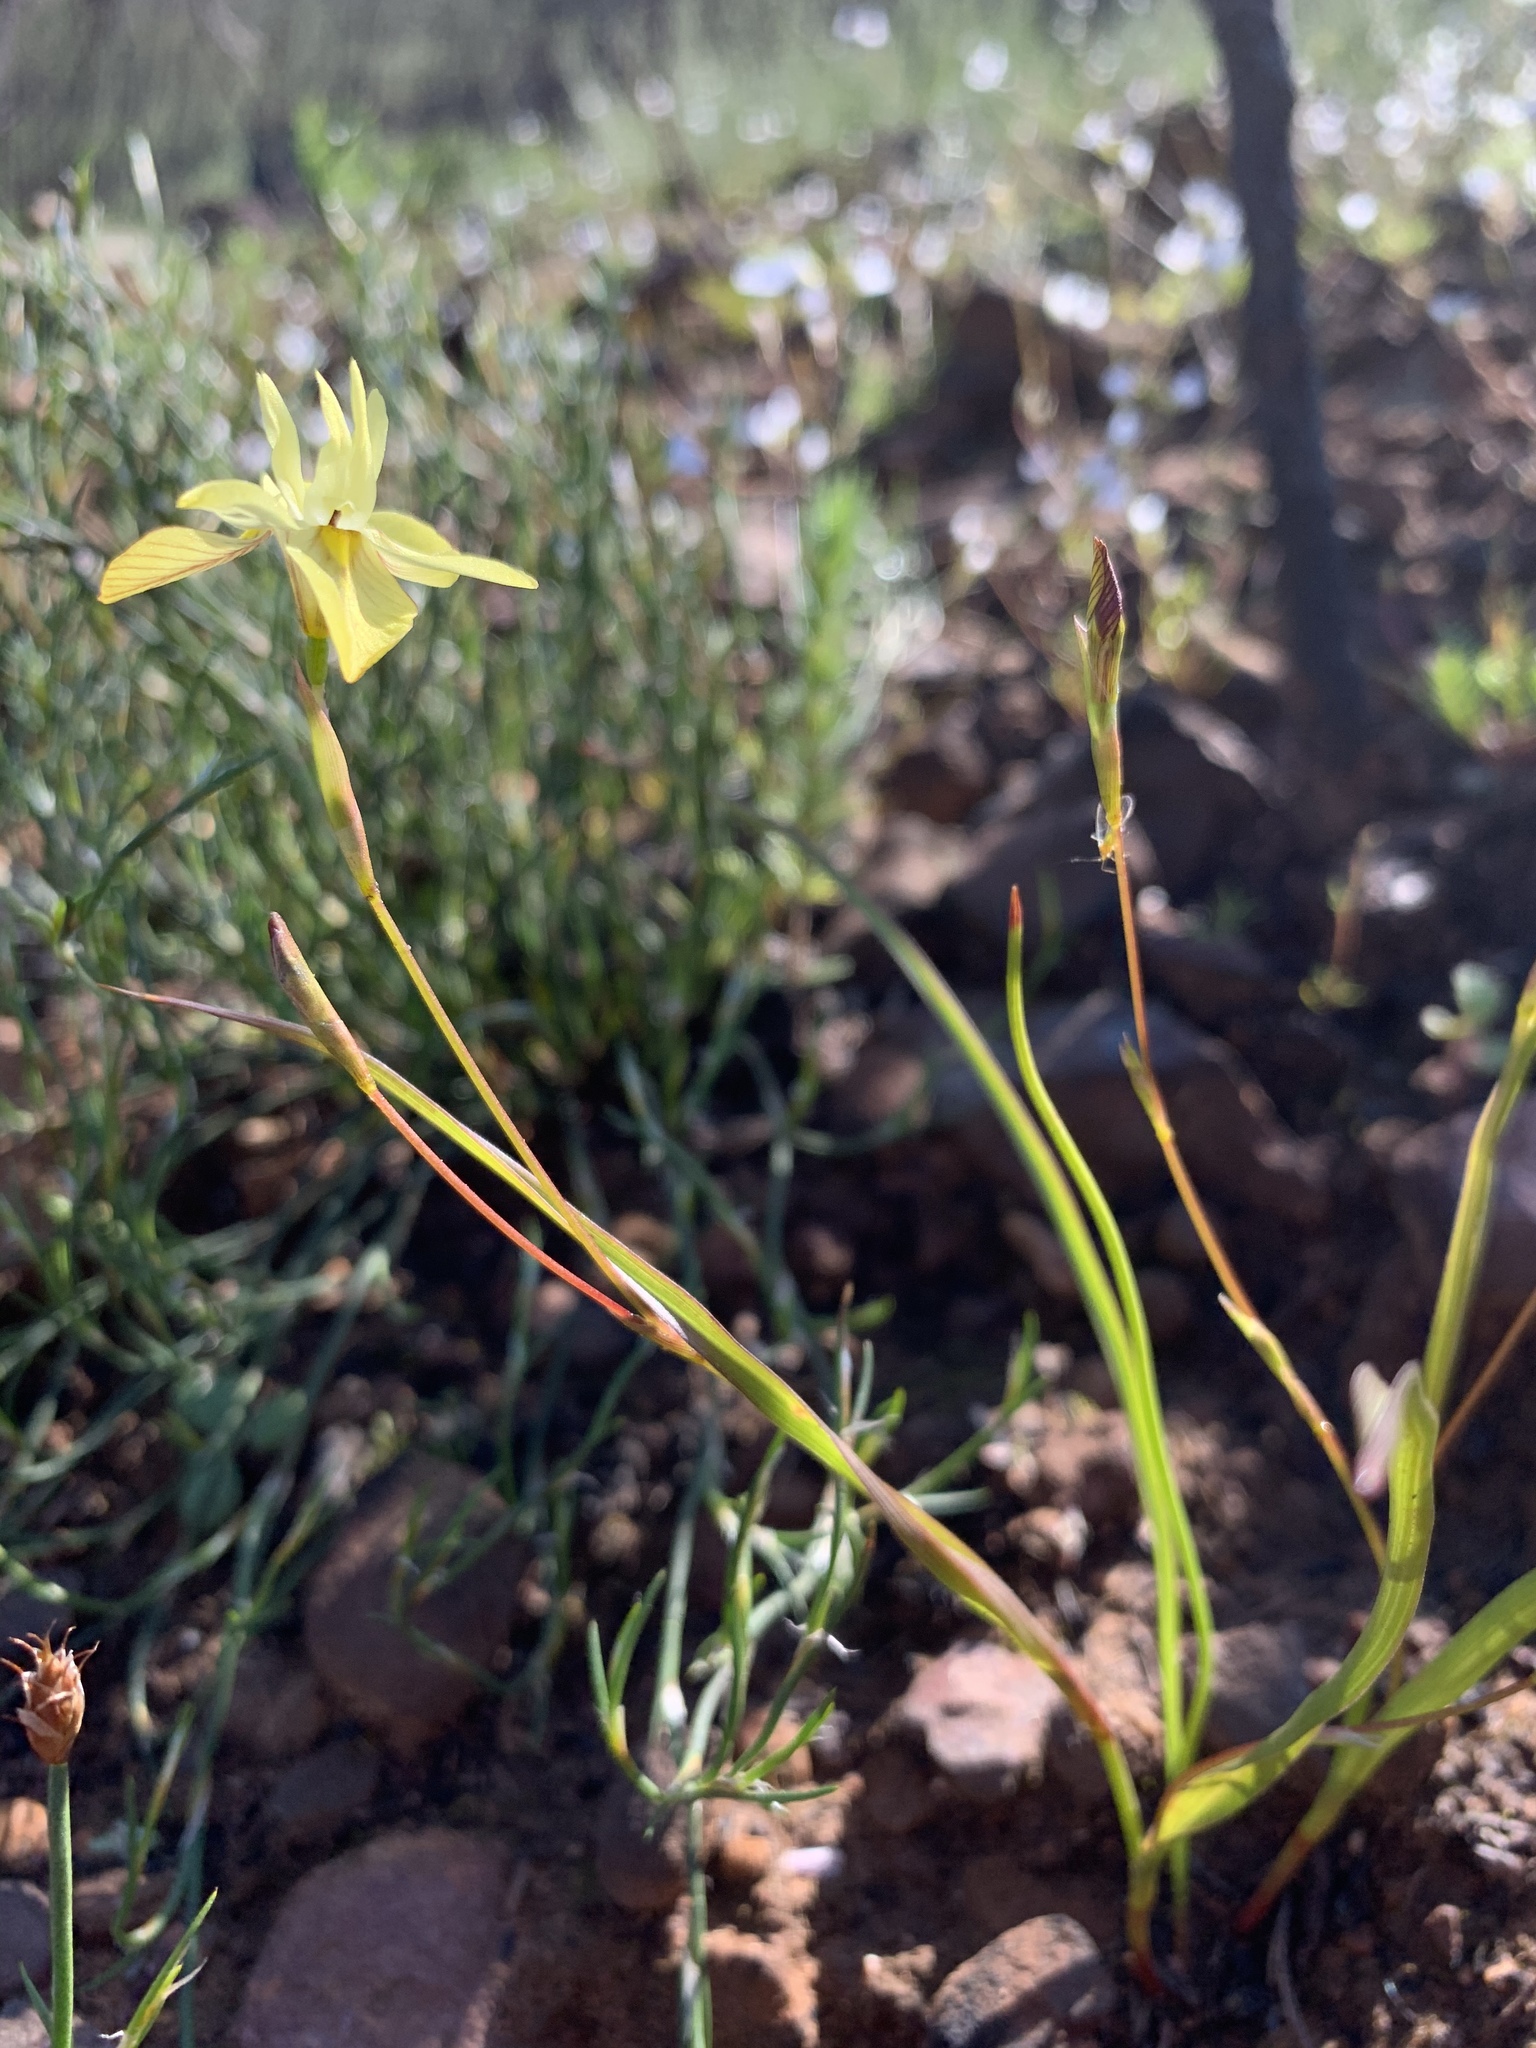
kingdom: Plantae
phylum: Tracheophyta
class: Liliopsida
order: Asparagales
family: Iridaceae
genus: Moraea
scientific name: Moraea gawleri
